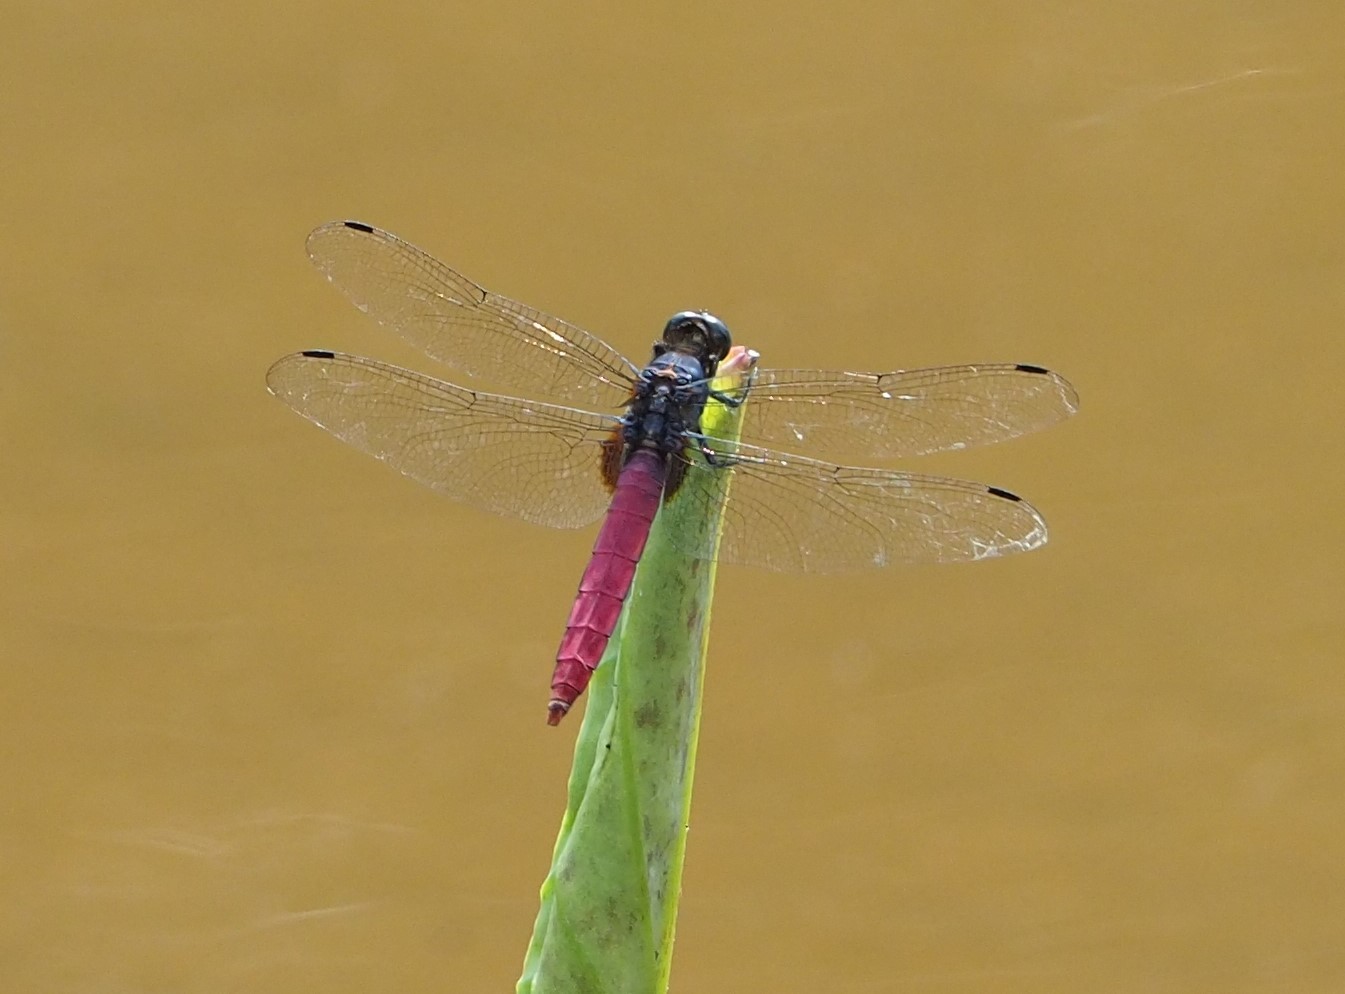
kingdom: Animalia
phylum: Arthropoda
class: Insecta
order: Odonata
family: Libellulidae
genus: Orthetrum
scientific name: Orthetrum pruinosum
